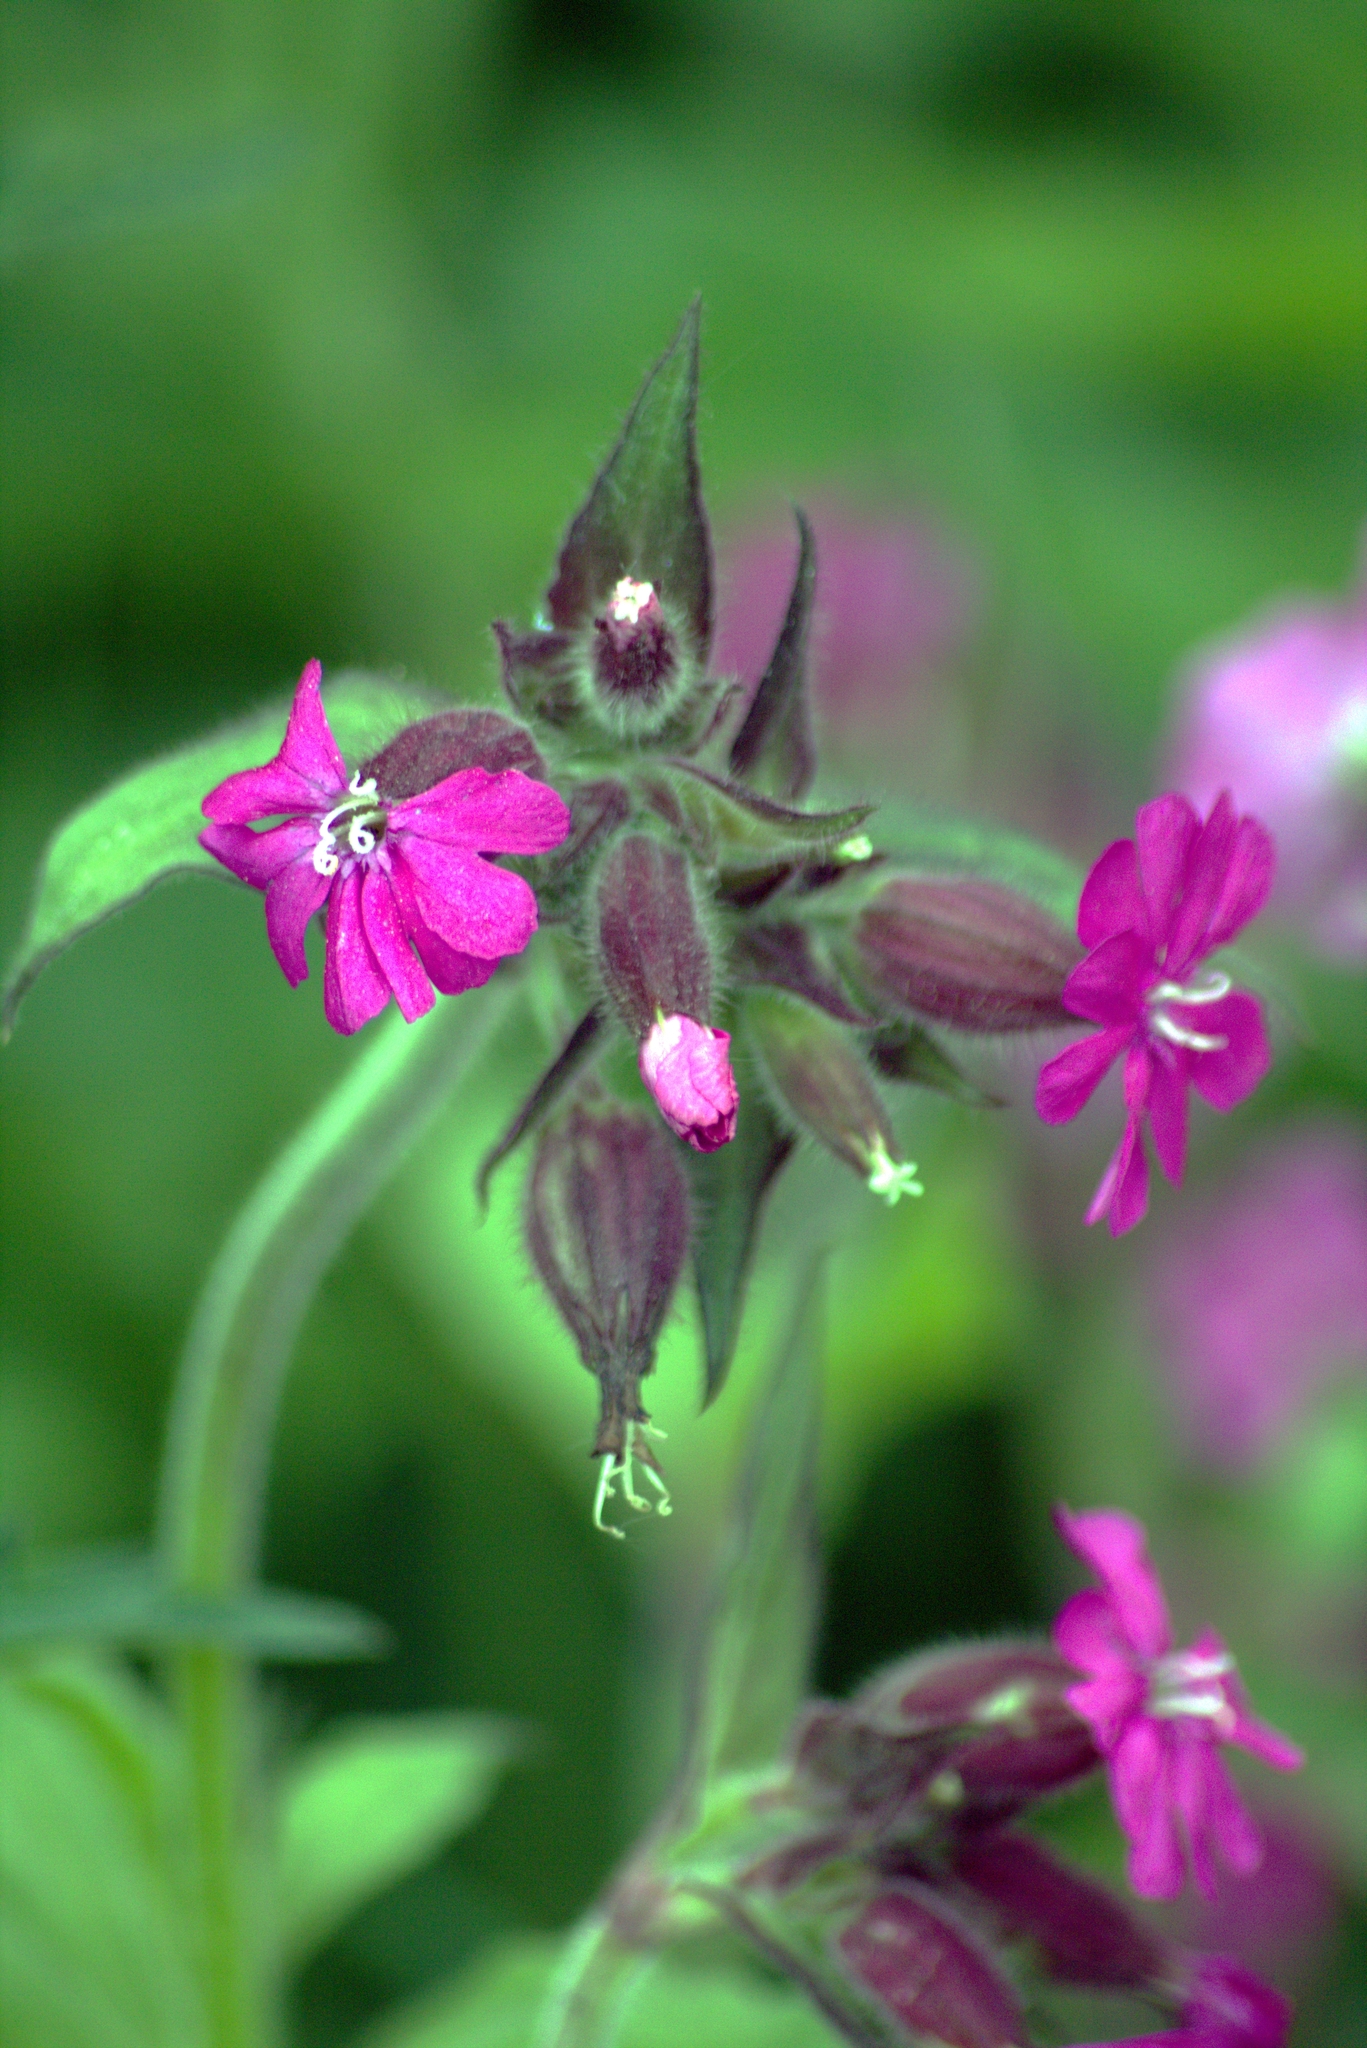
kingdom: Plantae
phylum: Tracheophyta
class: Magnoliopsida
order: Caryophyllales
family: Caryophyllaceae
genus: Silene
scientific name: Silene dioica
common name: Red campion
